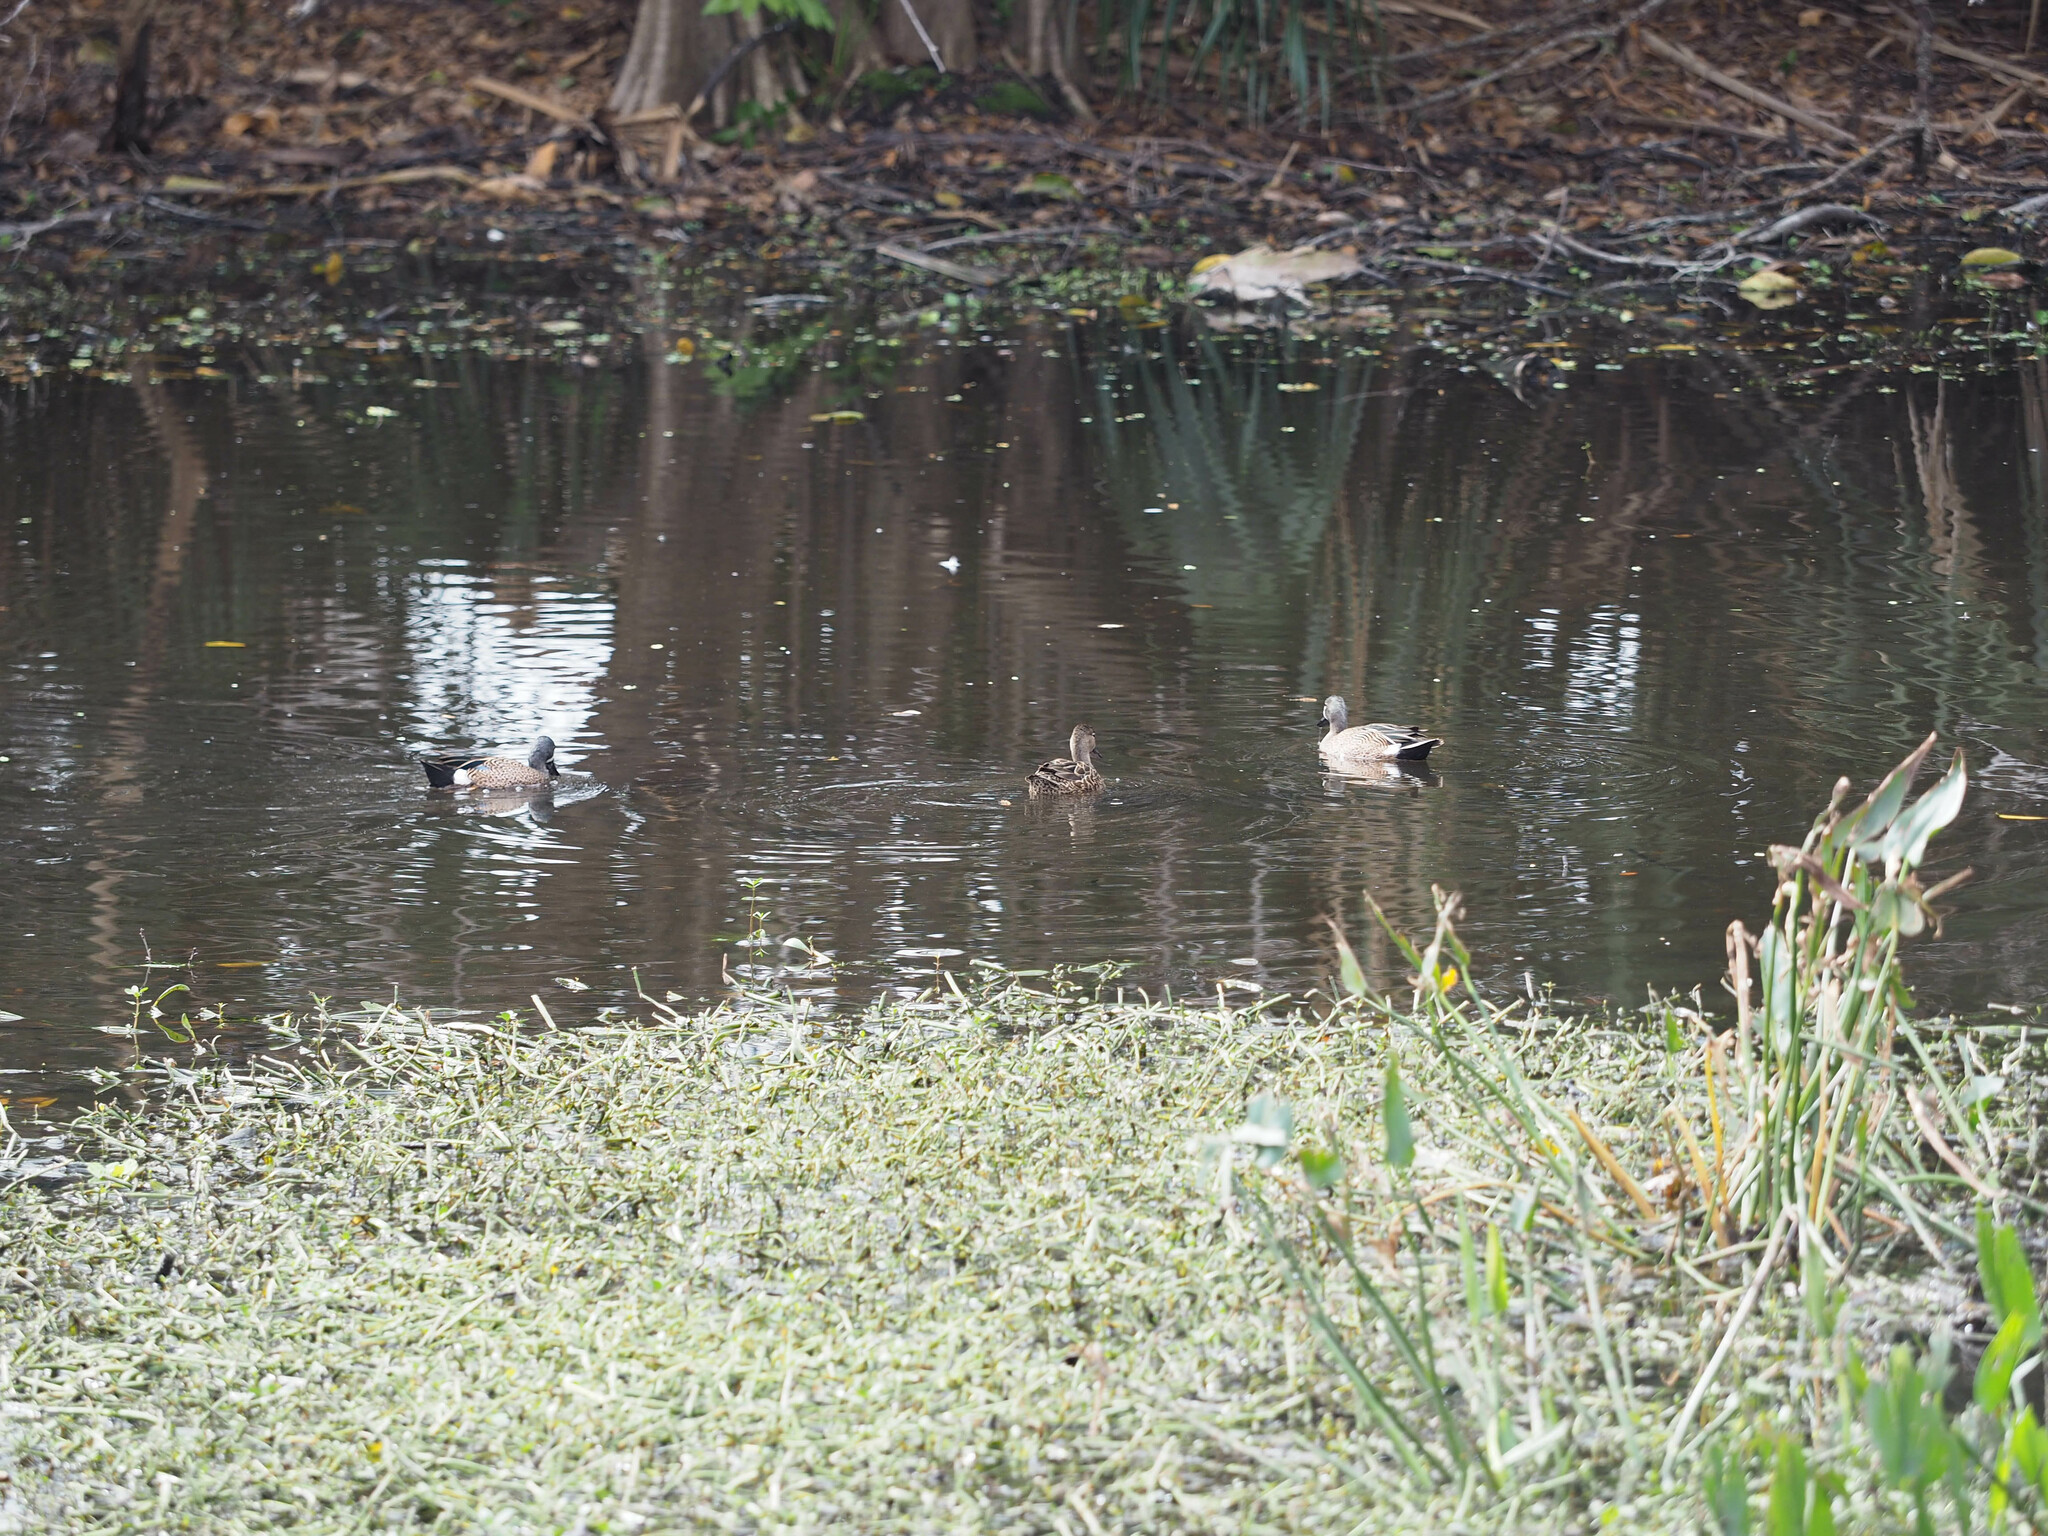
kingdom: Animalia
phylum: Chordata
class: Aves
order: Anseriformes
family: Anatidae
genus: Spatula
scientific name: Spatula discors
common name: Blue-winged teal
